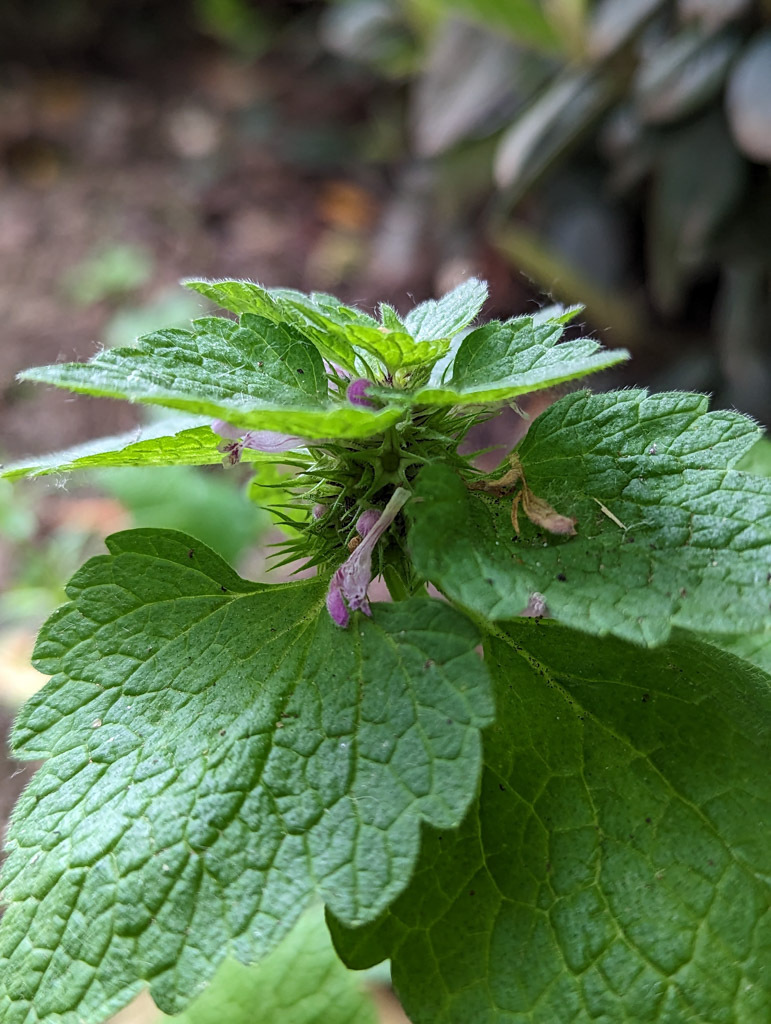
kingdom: Plantae
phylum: Tracheophyta
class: Magnoliopsida
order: Lamiales
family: Lamiaceae
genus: Lamium
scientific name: Lamium purpureum
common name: Red dead-nettle
